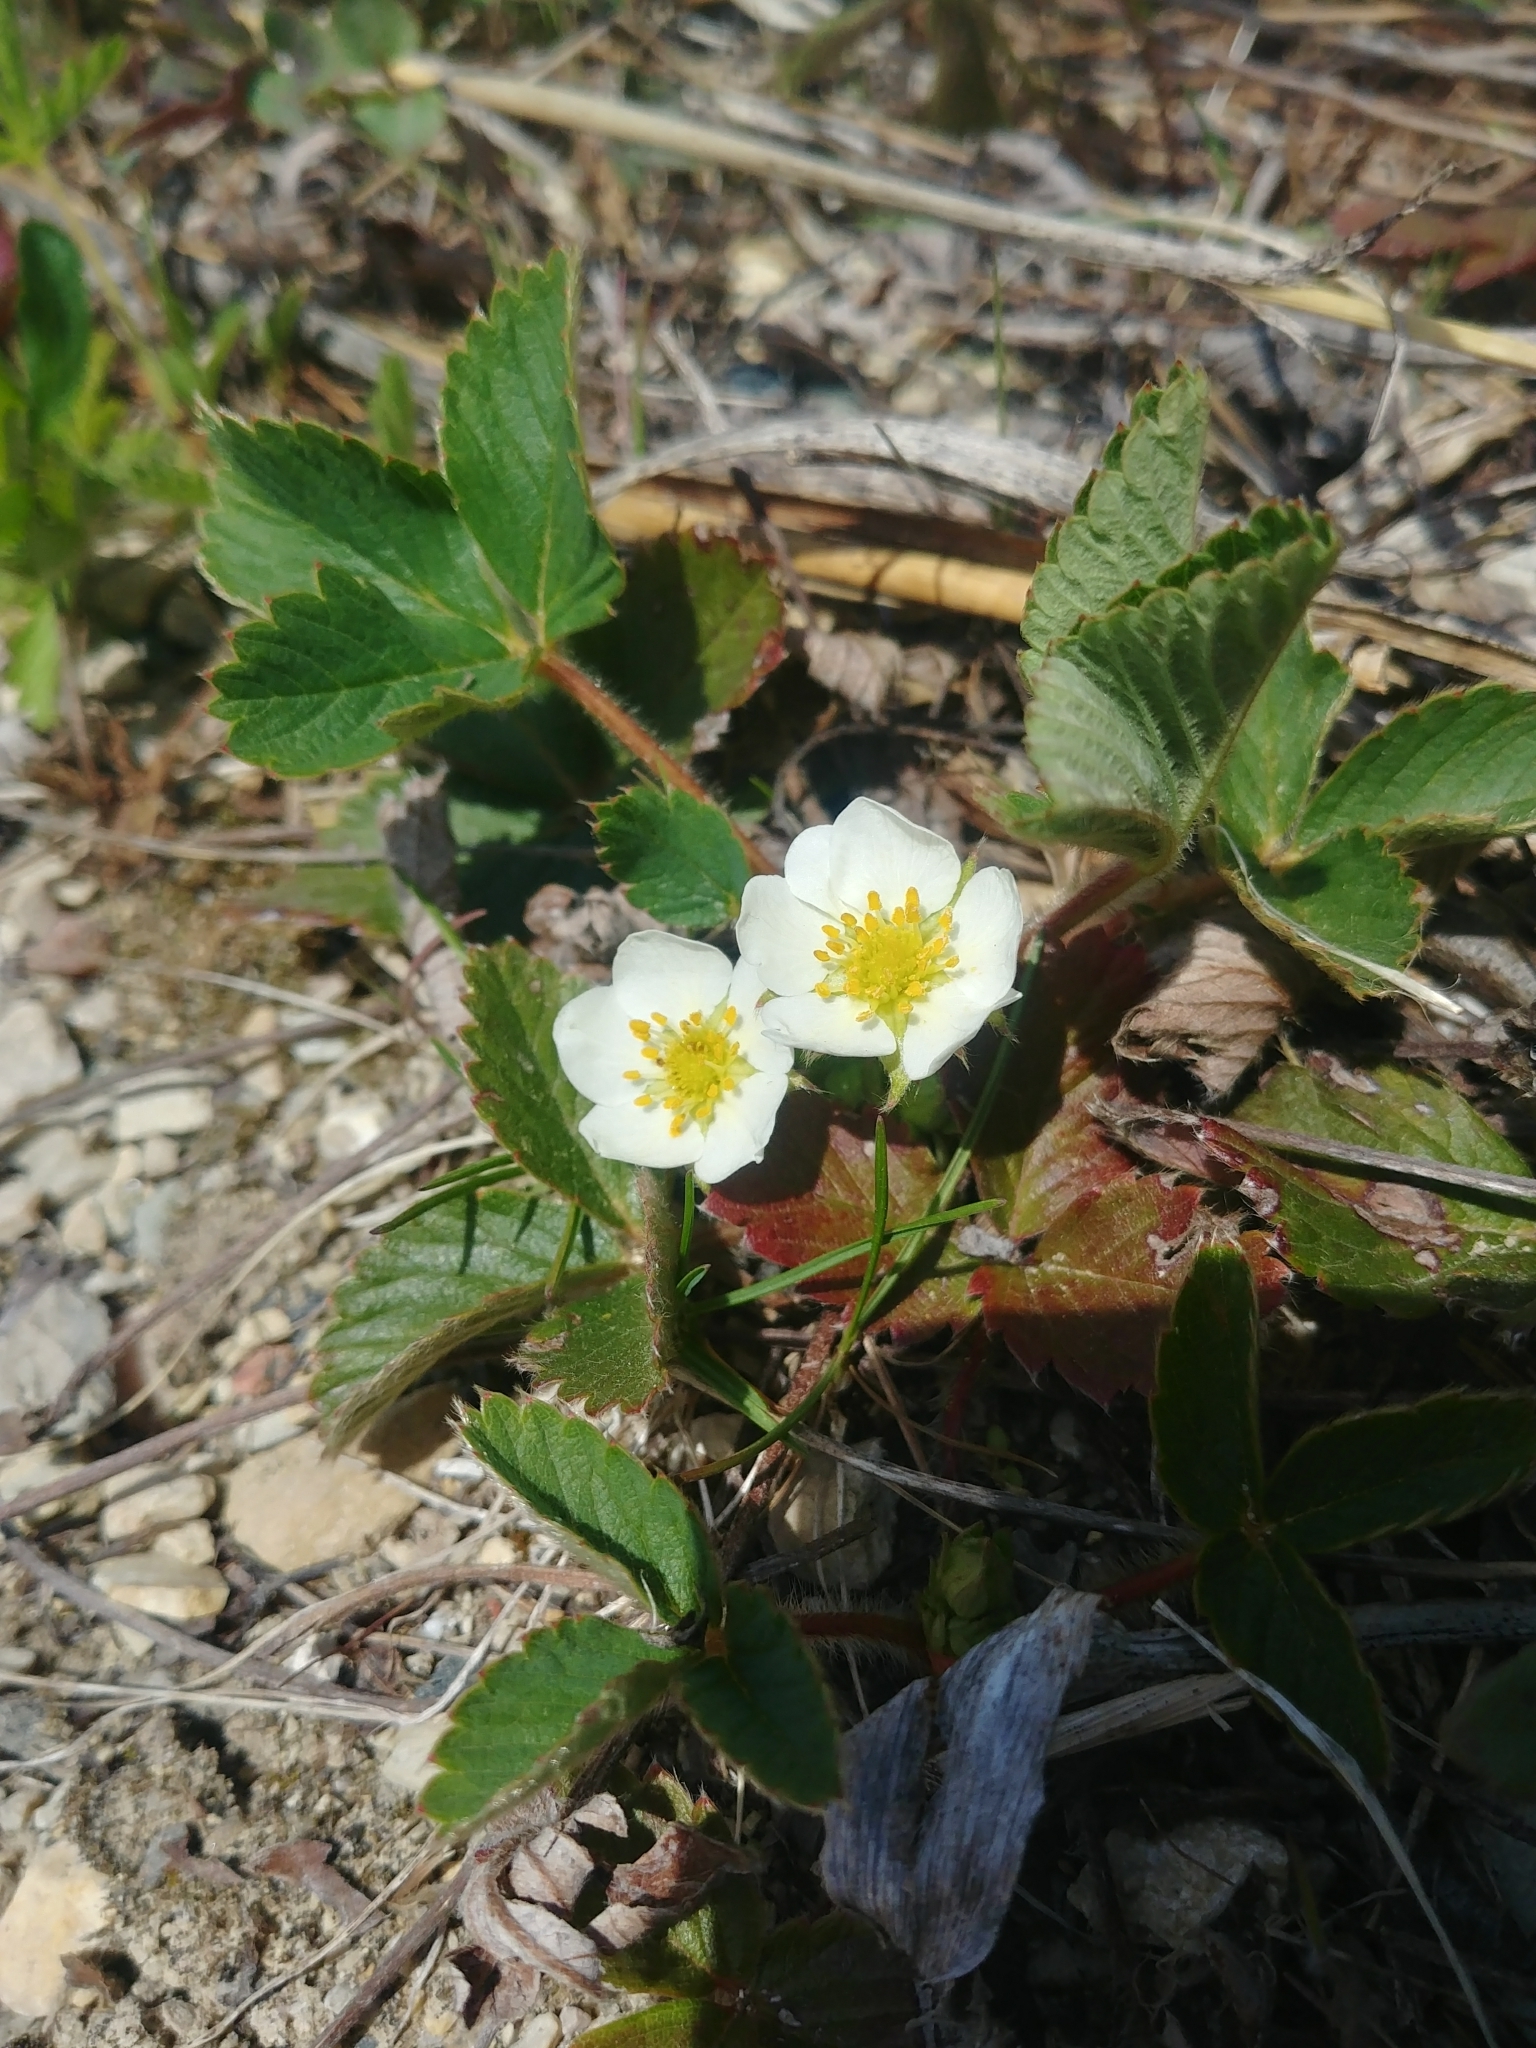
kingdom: Plantae
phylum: Tracheophyta
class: Magnoliopsida
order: Rosales
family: Rosaceae
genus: Fragaria
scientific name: Fragaria virginiana
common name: Thickleaved wild strawberry
